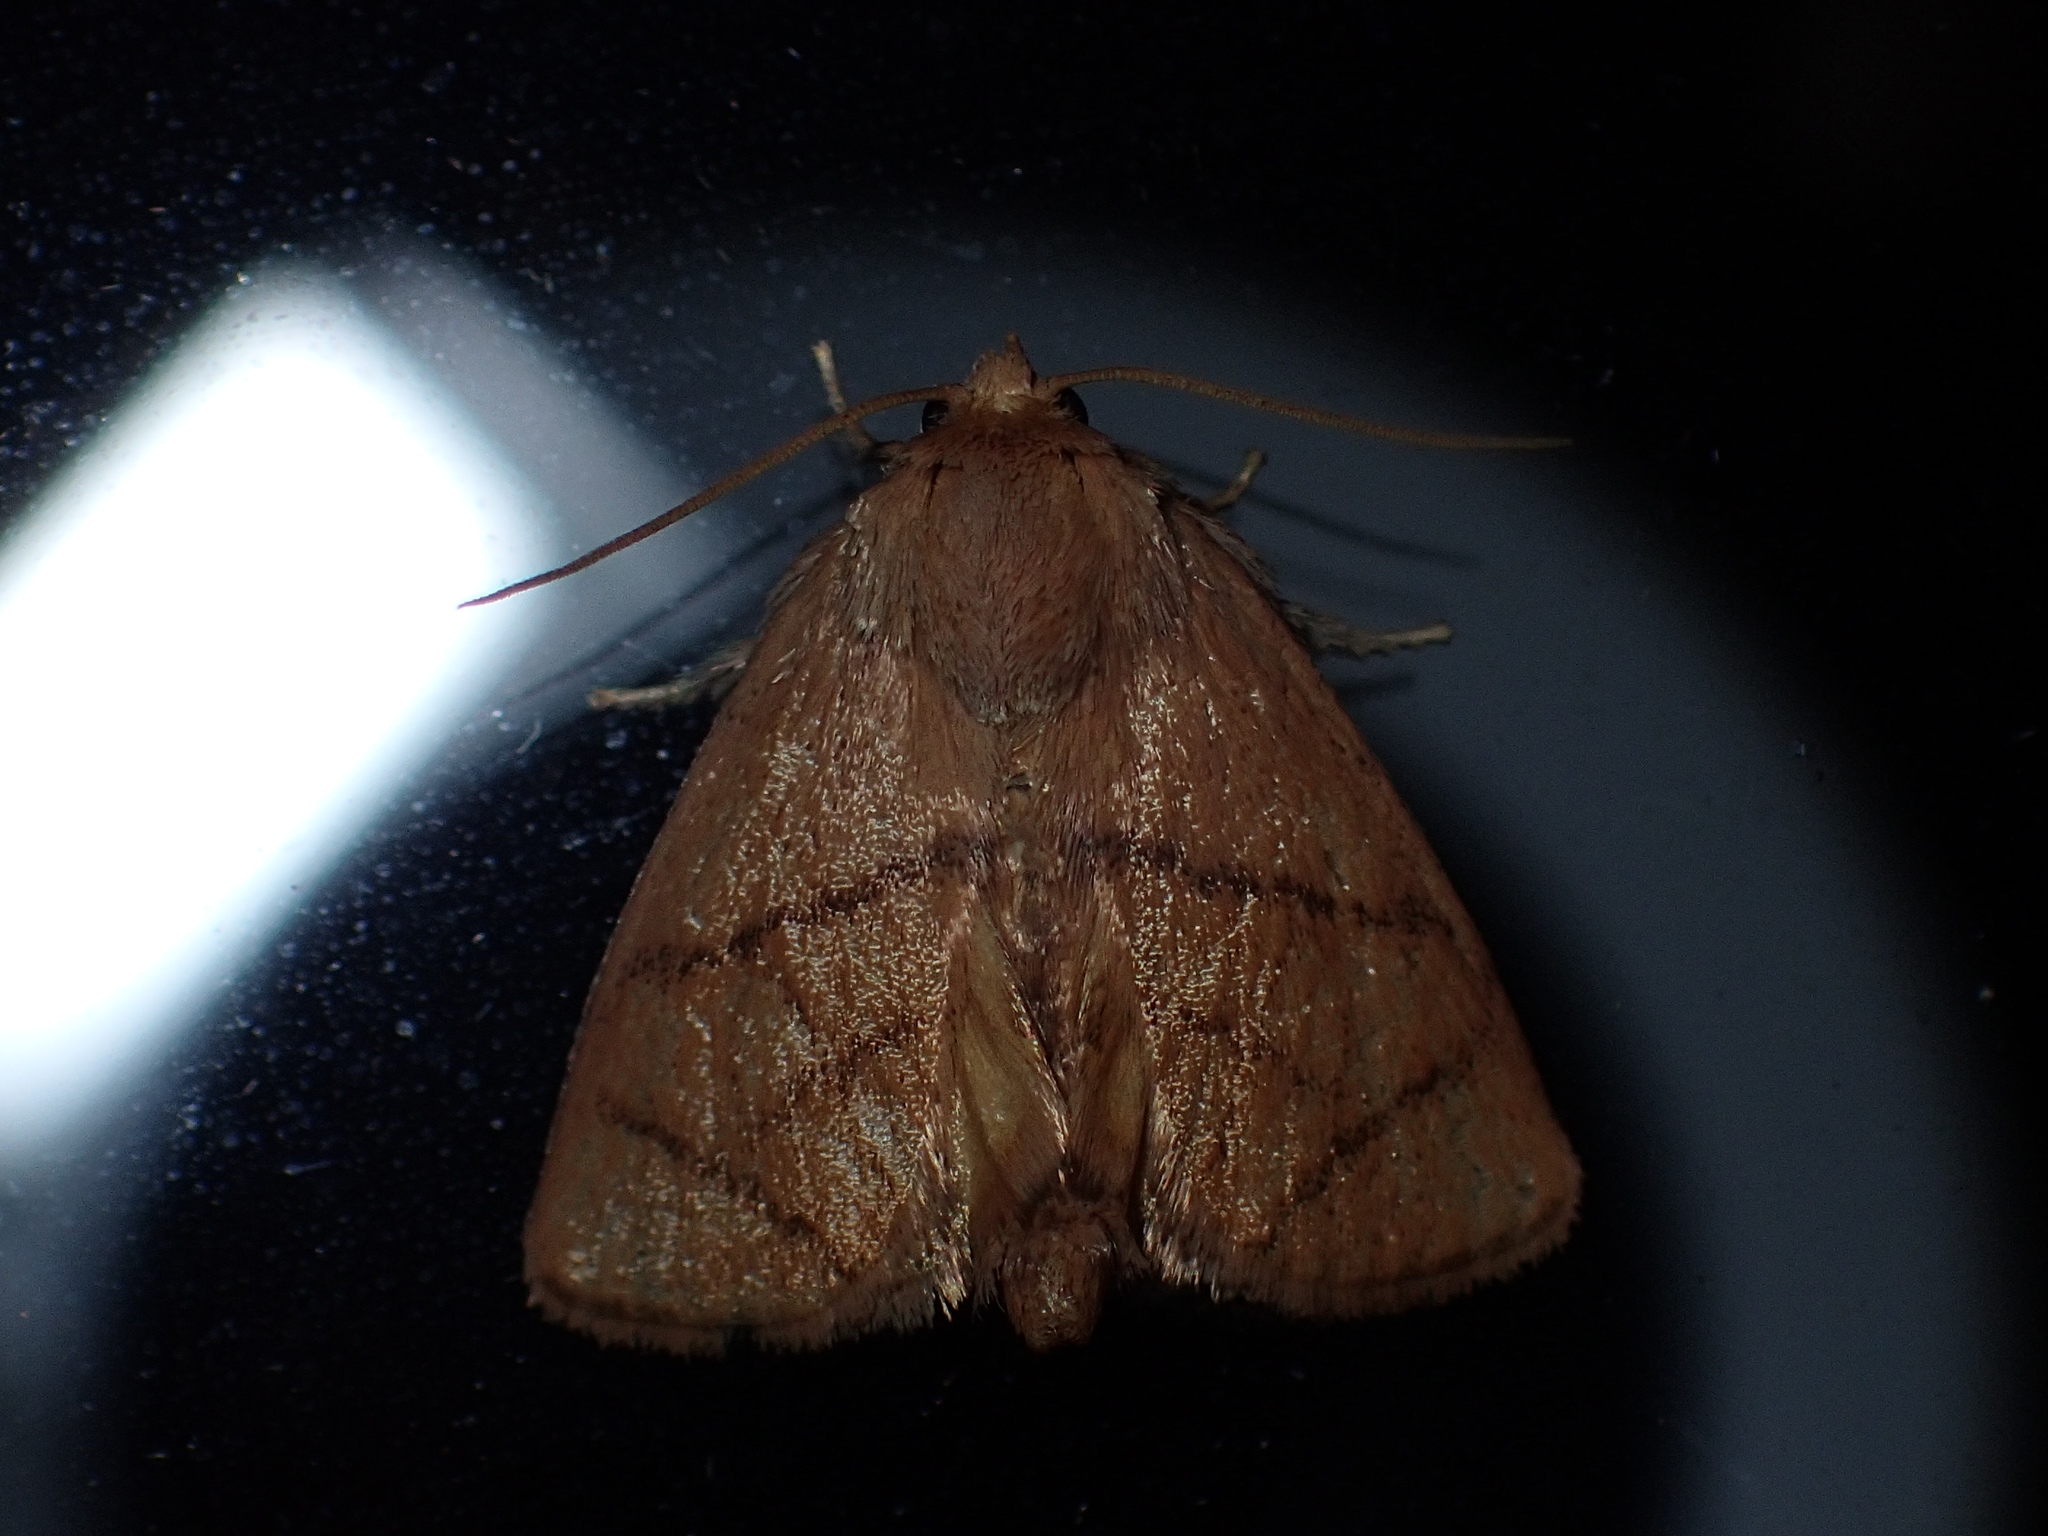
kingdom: Animalia
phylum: Arthropoda
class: Insecta
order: Lepidoptera
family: Limacodidae
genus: Apoda
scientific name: Apoda y-inversa
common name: Yellow-collared slug moth
